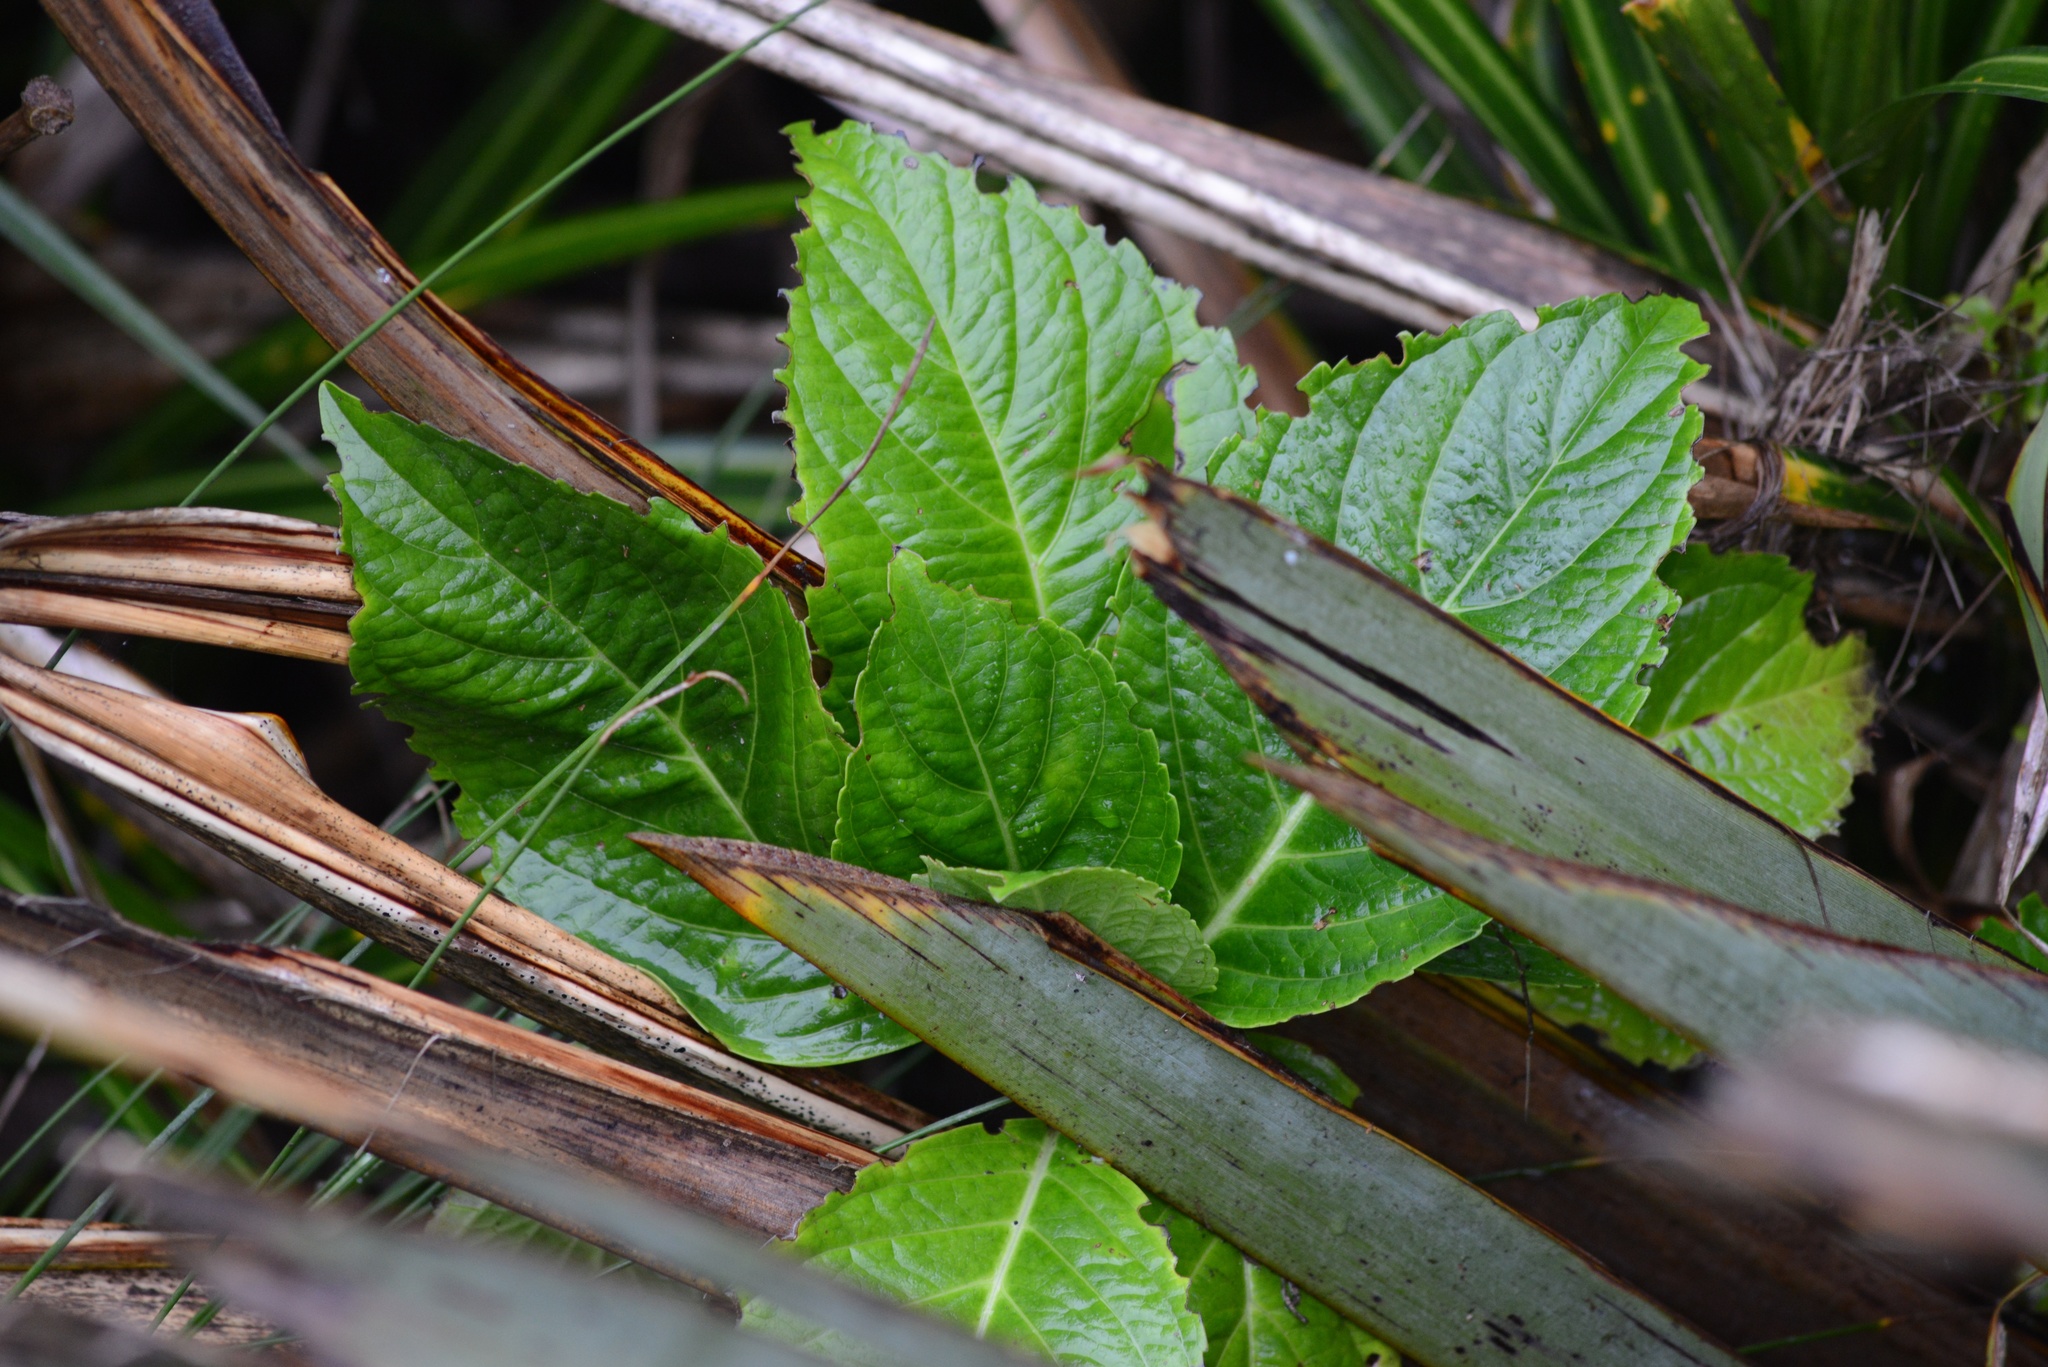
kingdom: Plantae
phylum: Tracheophyta
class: Magnoliopsida
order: Cornales
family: Hydrangeaceae
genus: Hydrangea
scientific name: Hydrangea macrophylla
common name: Hydrangea
